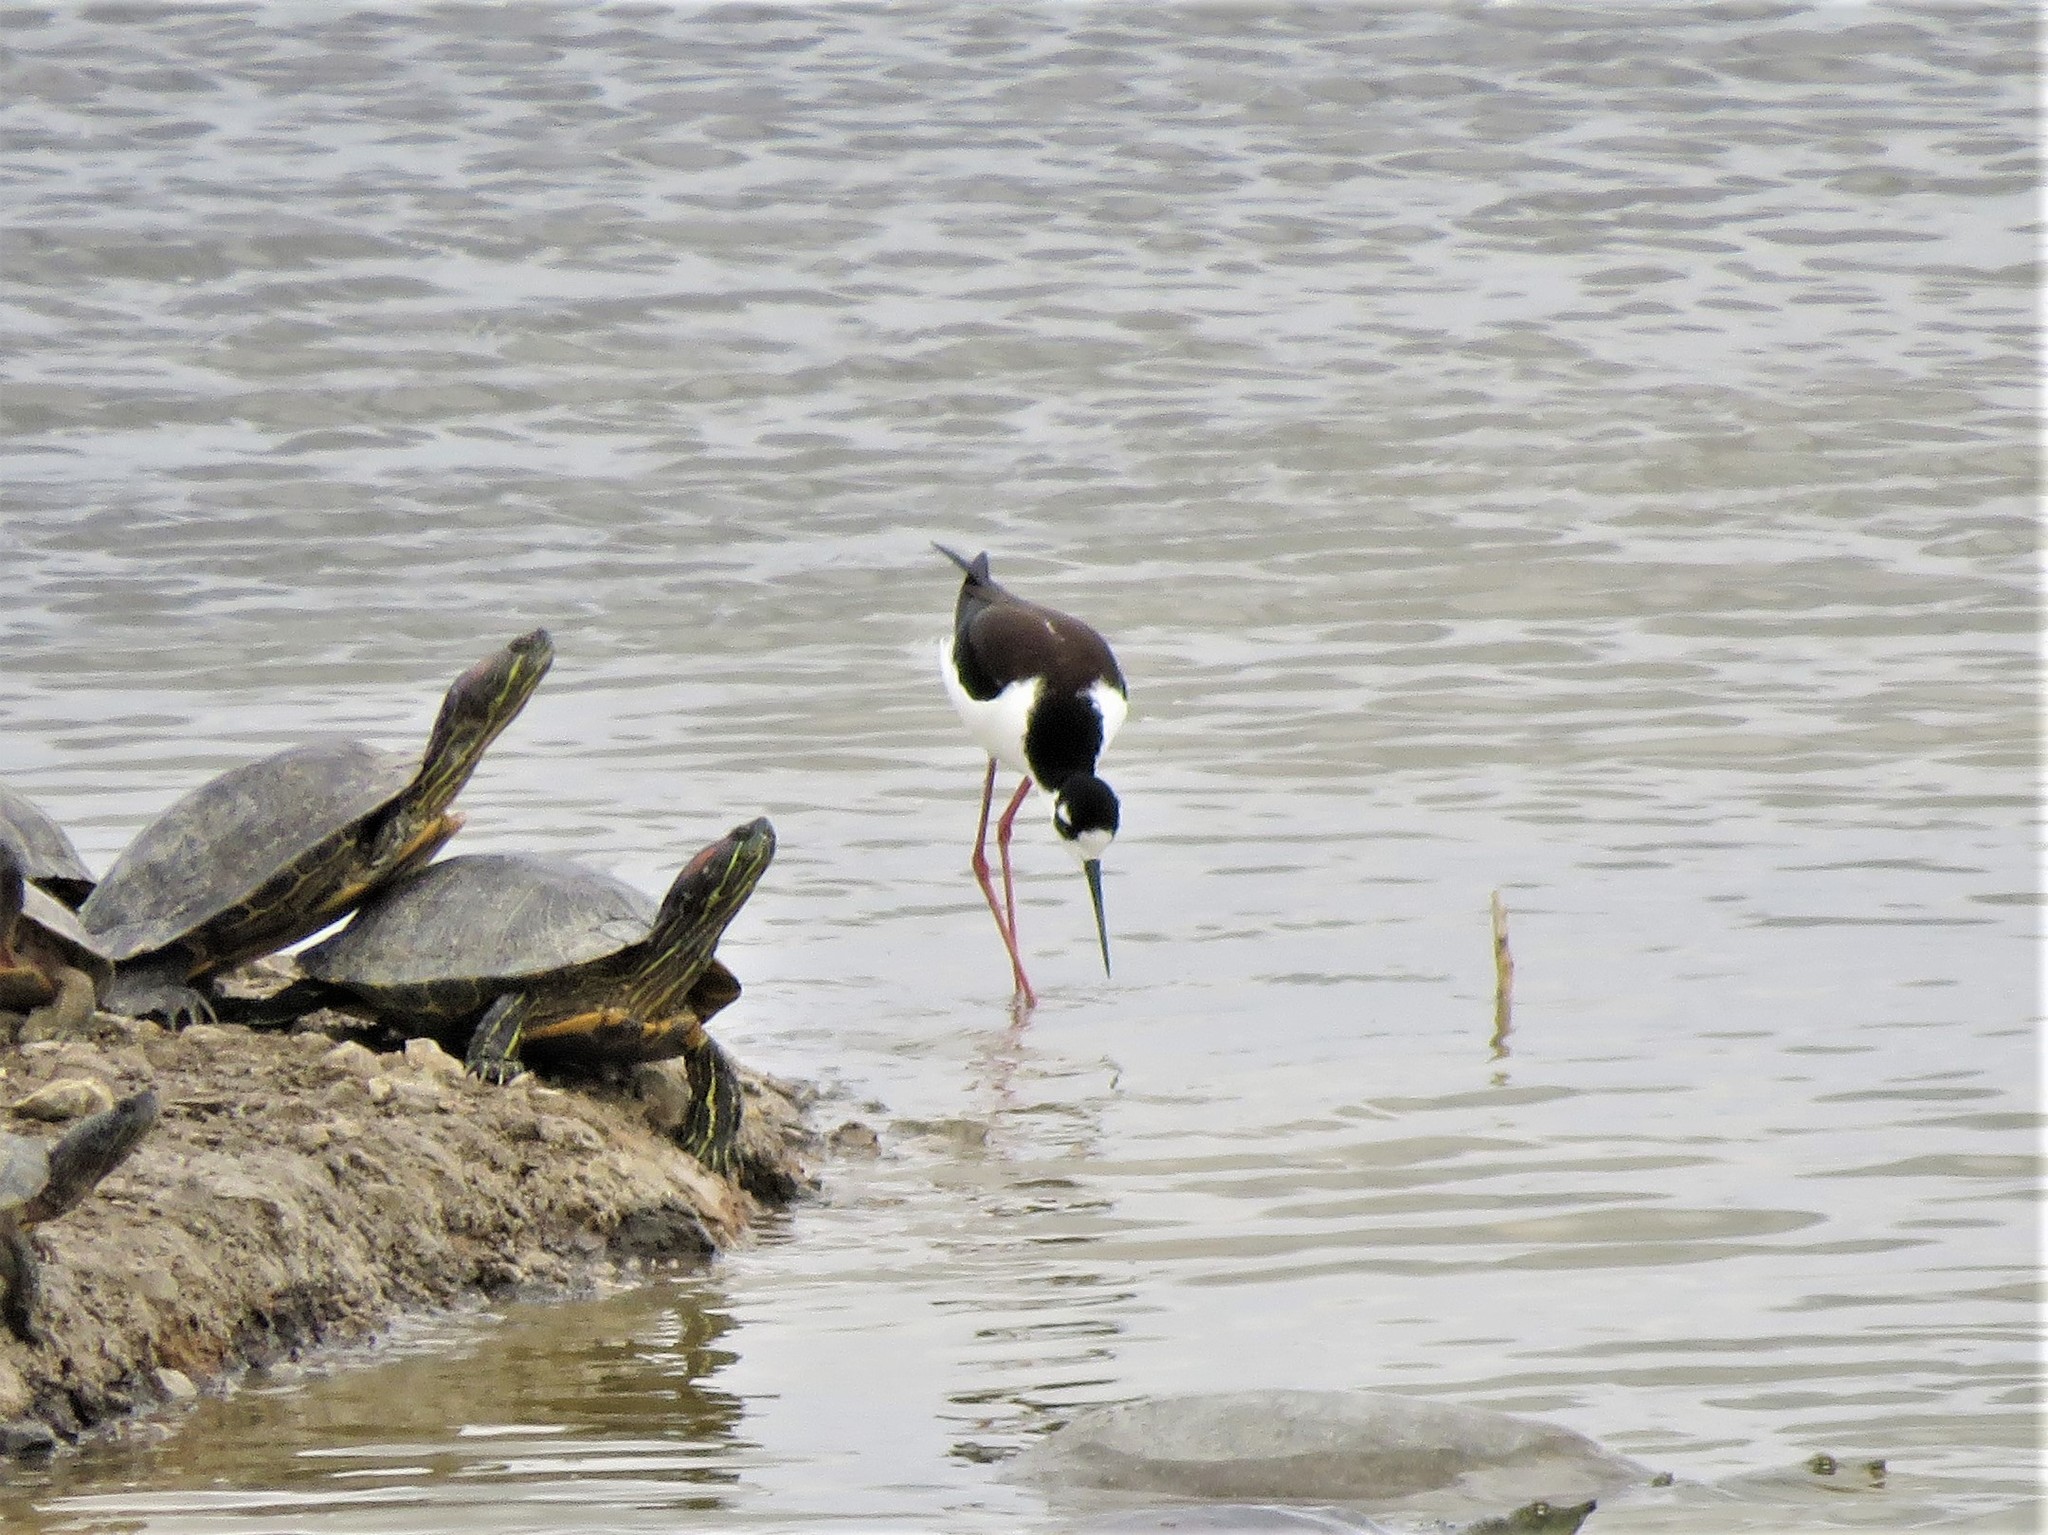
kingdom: Animalia
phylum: Chordata
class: Aves
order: Charadriiformes
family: Recurvirostridae
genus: Himantopus
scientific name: Himantopus mexicanus
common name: Black-necked stilt
